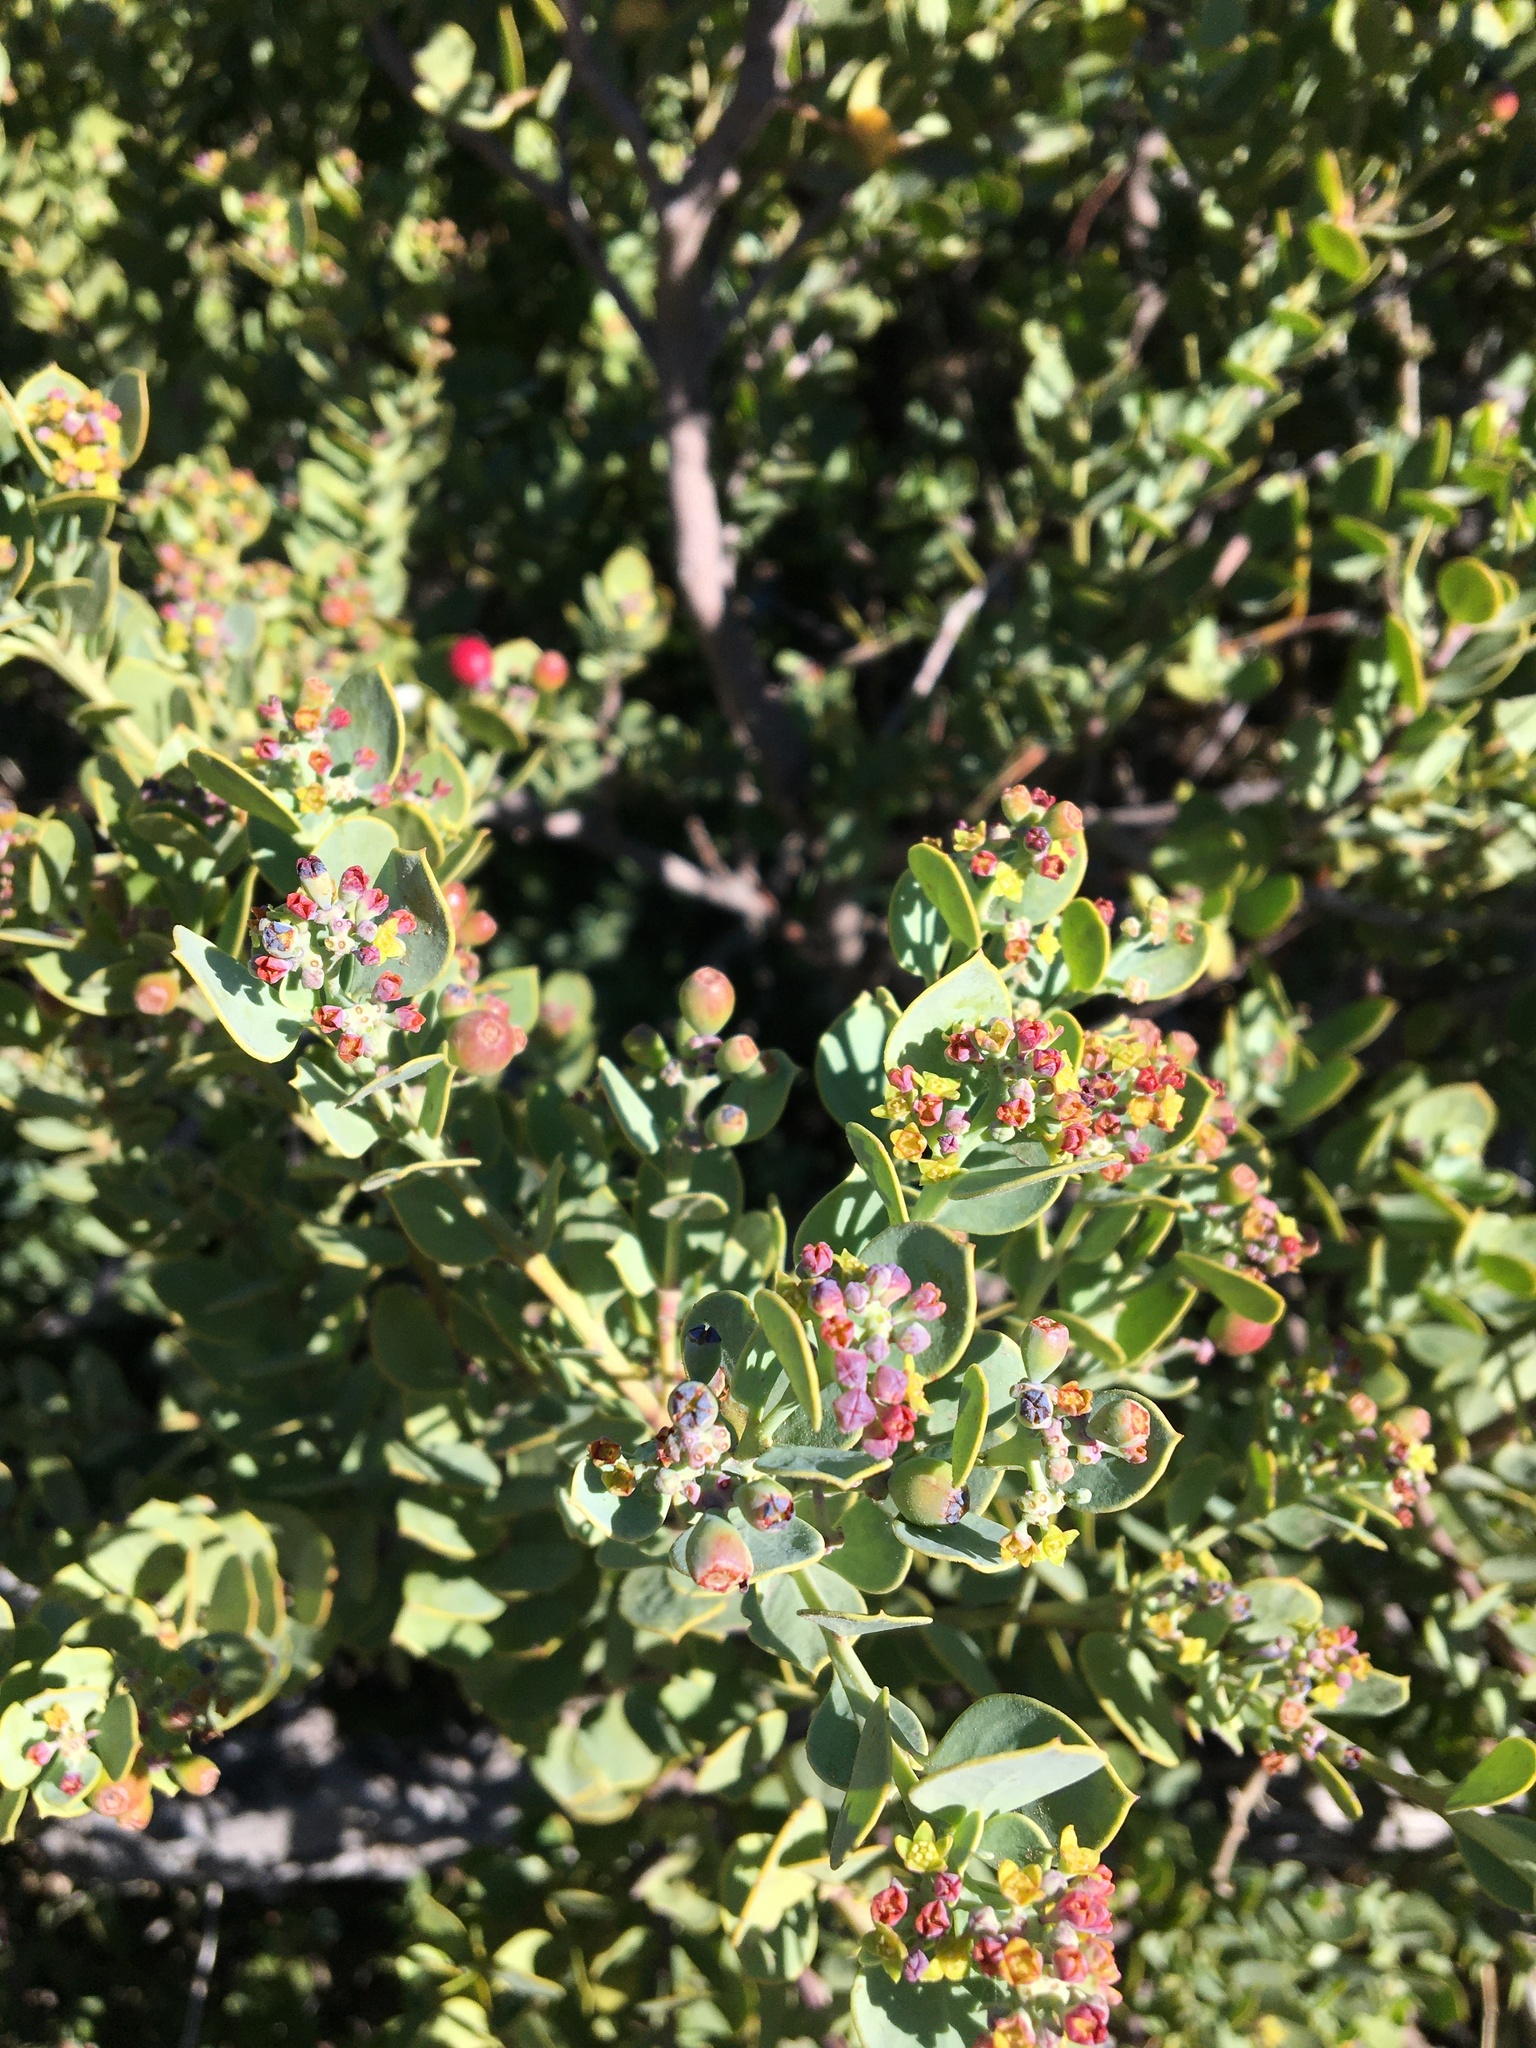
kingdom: Plantae
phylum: Tracheophyta
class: Magnoliopsida
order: Santalales
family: Santalaceae
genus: Osyris
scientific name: Osyris compressa
